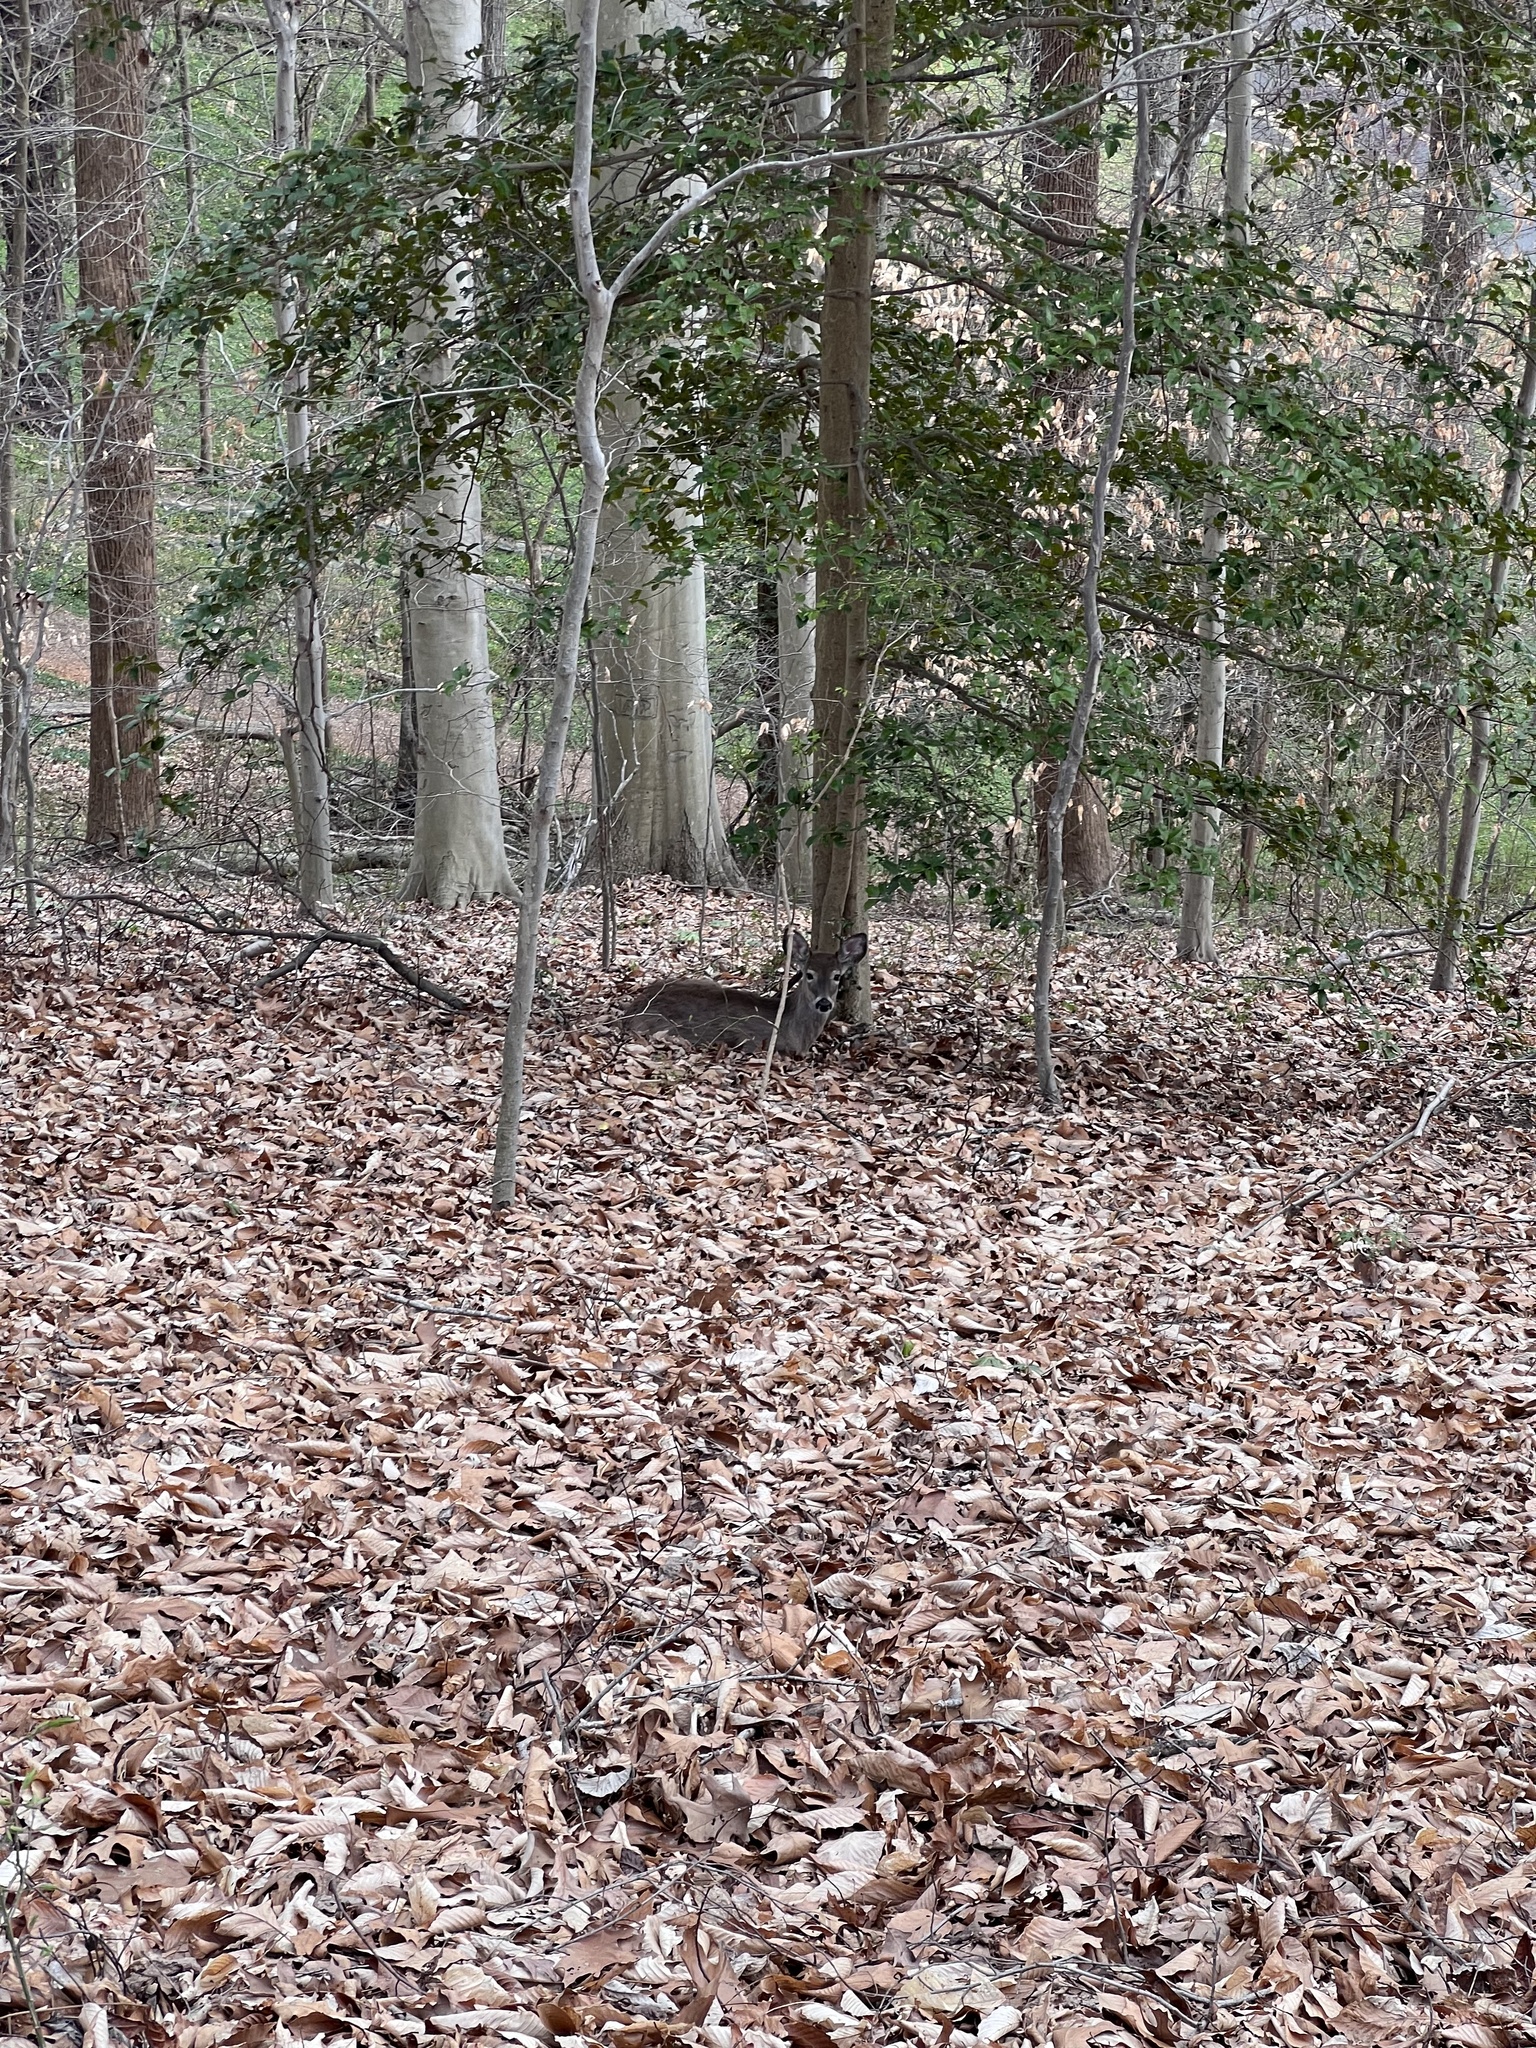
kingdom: Animalia
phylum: Chordata
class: Mammalia
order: Artiodactyla
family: Cervidae
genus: Odocoileus
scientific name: Odocoileus virginianus
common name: White-tailed deer
